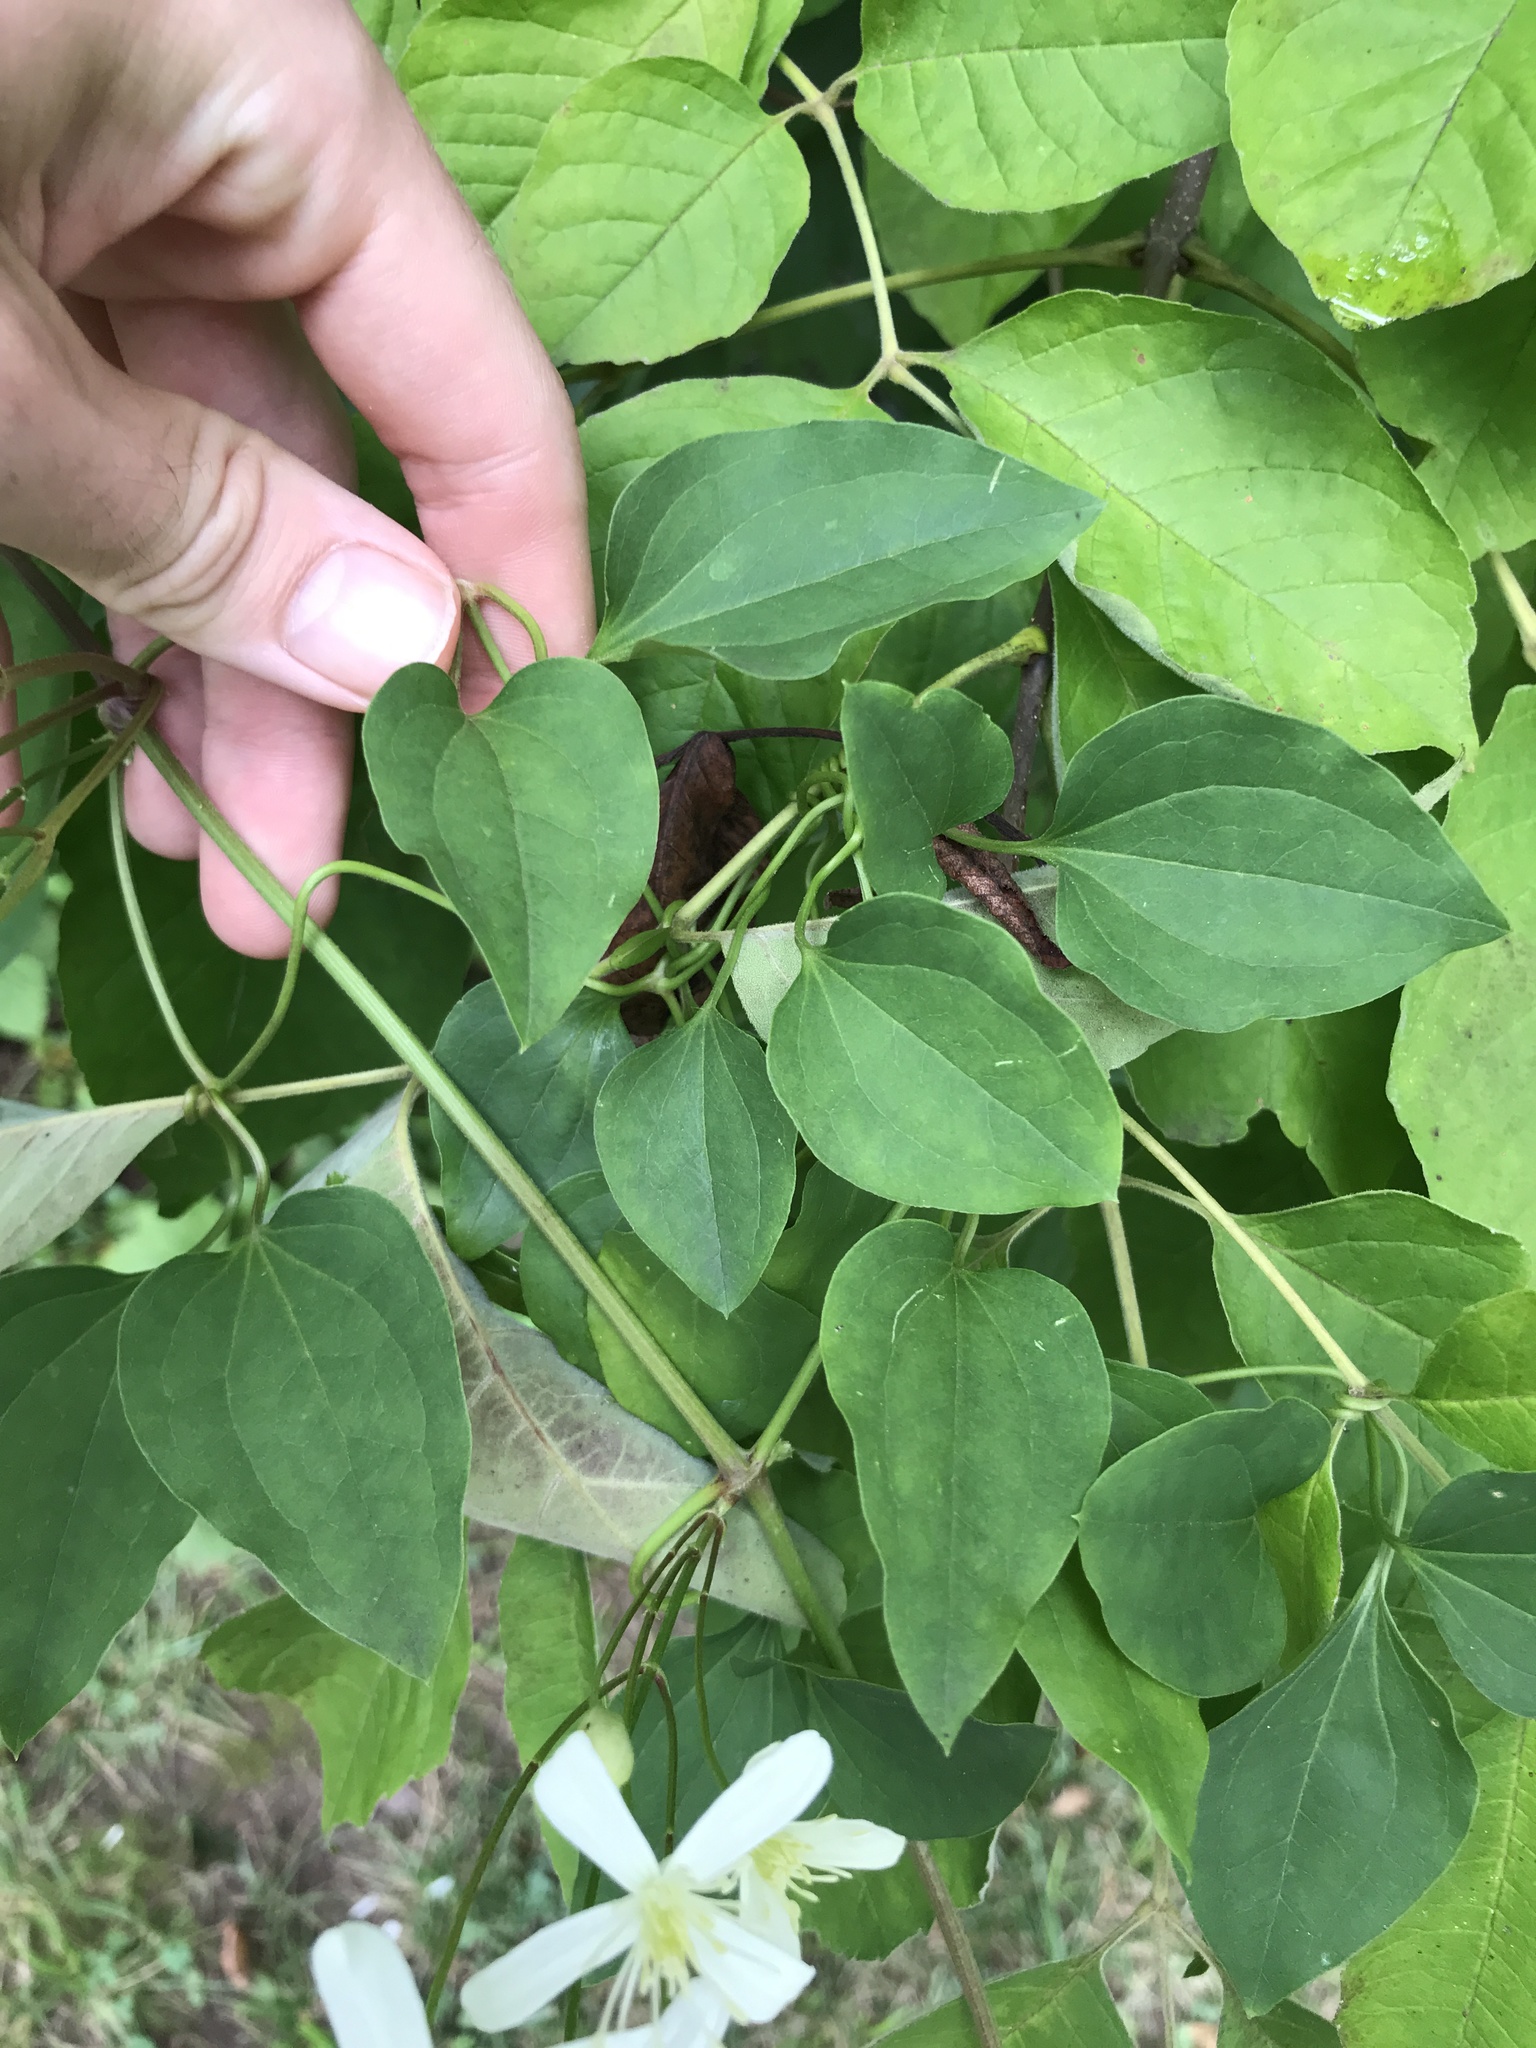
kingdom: Plantae
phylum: Tracheophyta
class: Magnoliopsida
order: Ranunculales
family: Ranunculaceae
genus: Clematis
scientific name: Clematis terniflora
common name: Sweet autumn clematis
